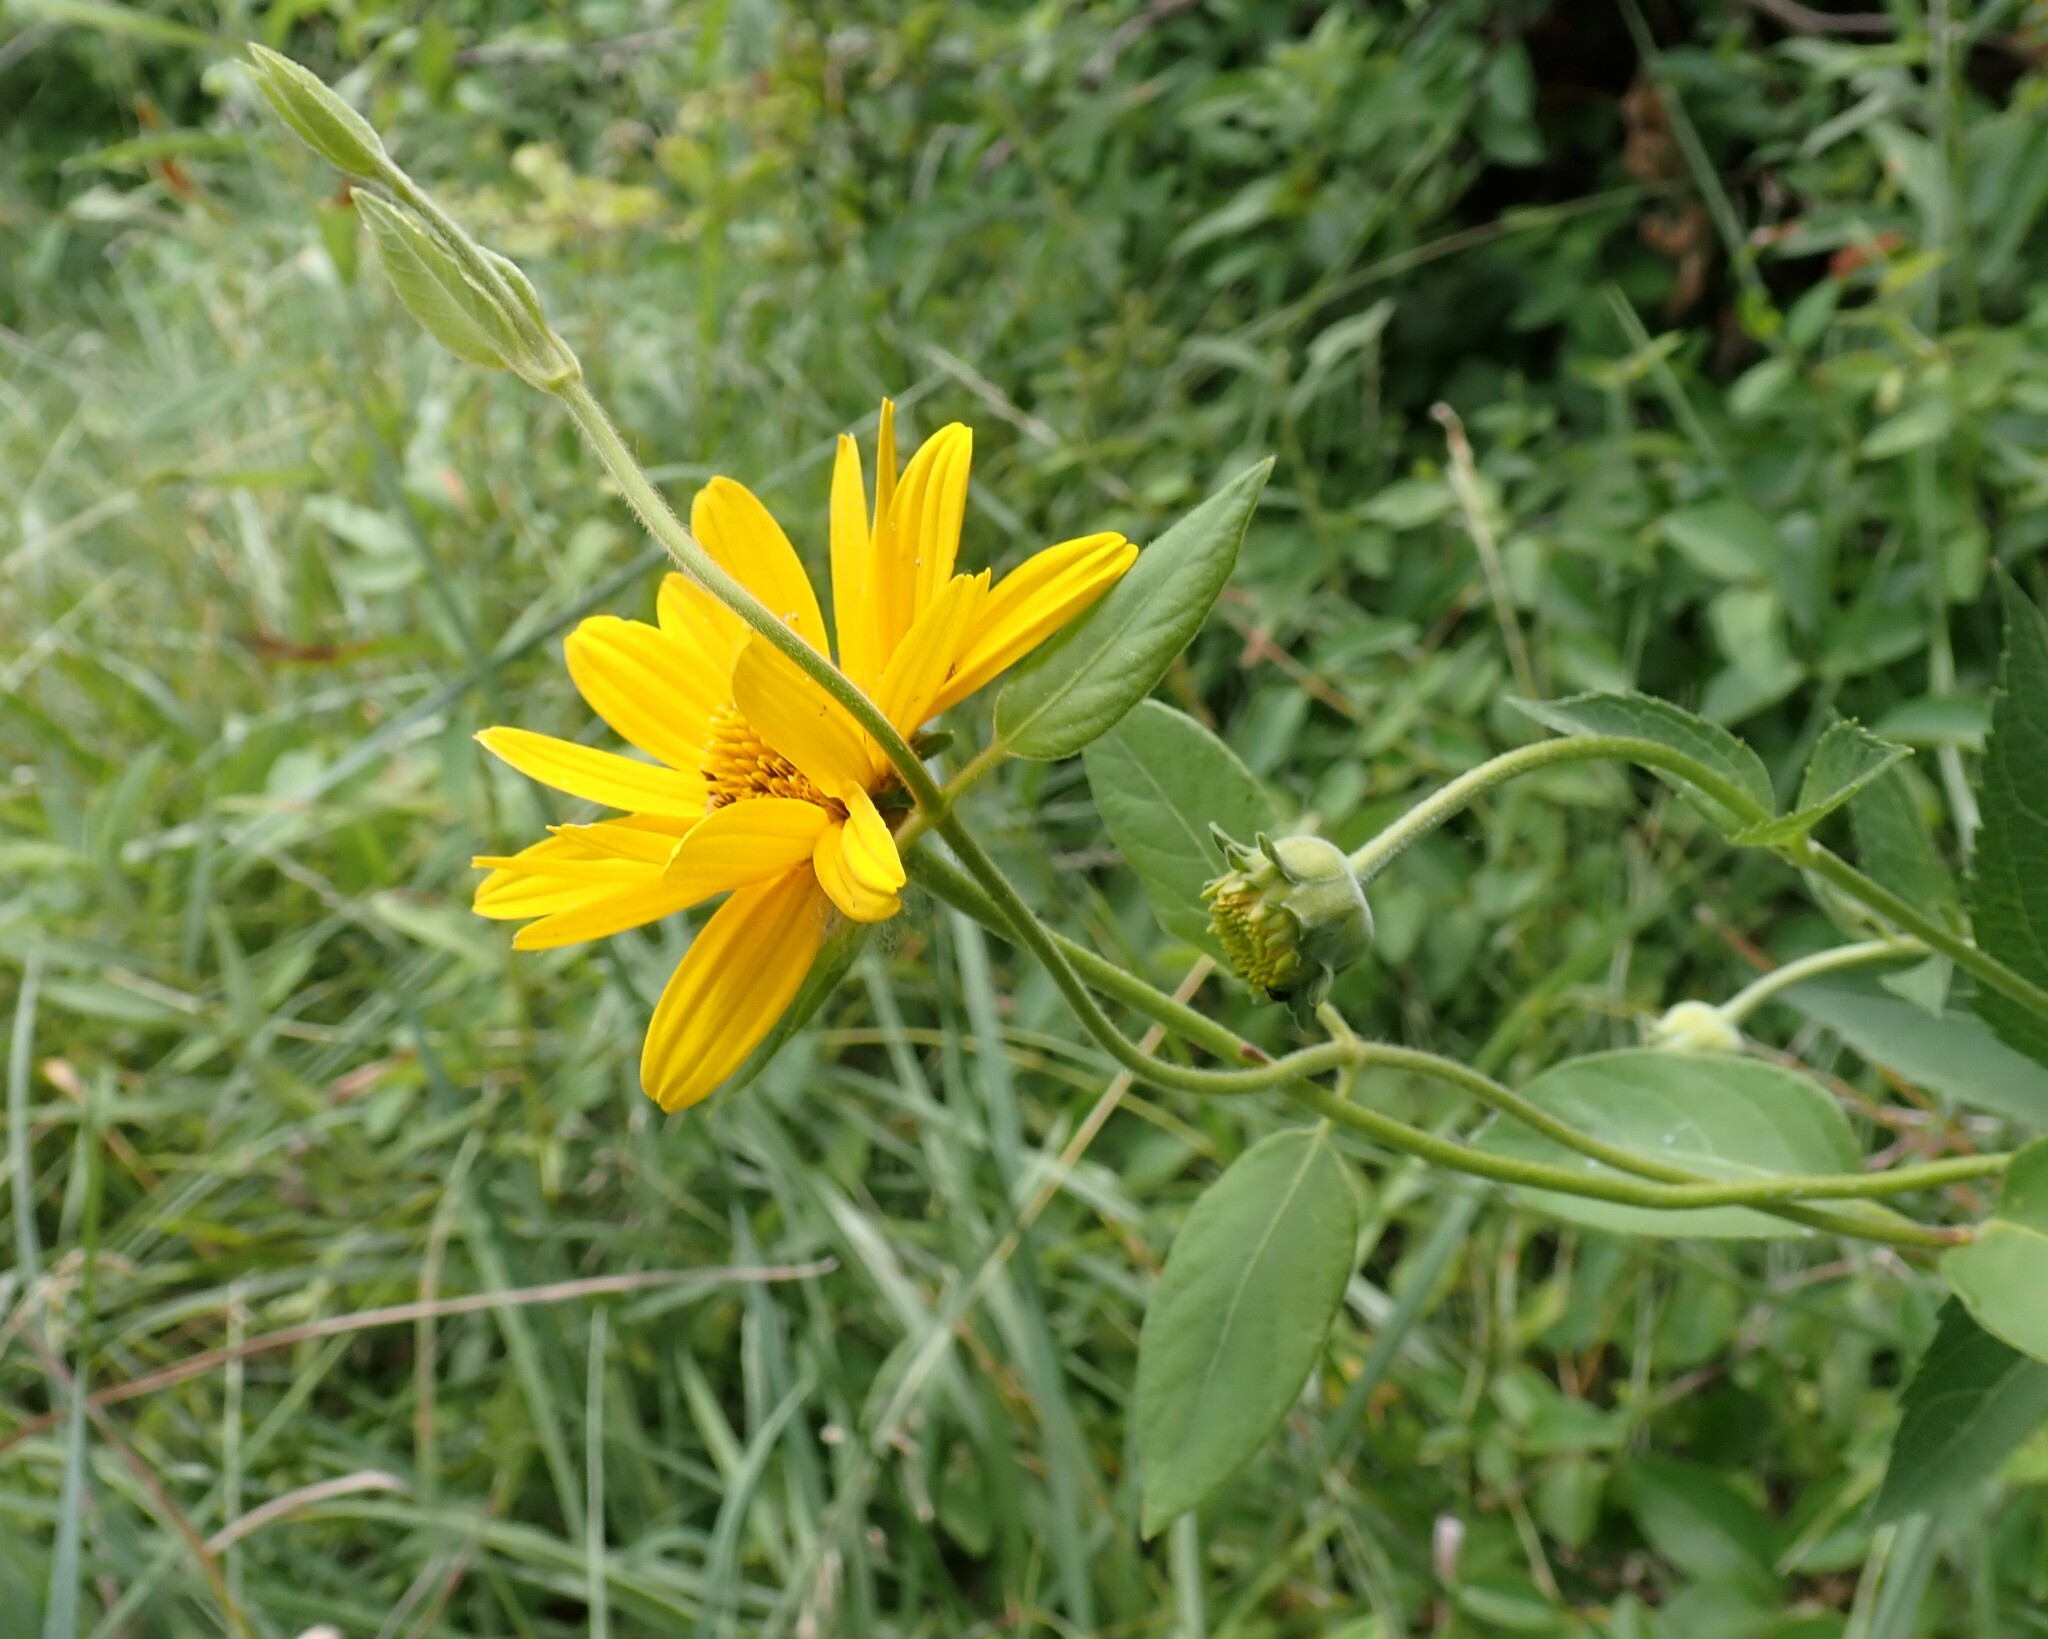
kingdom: Plantae
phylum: Tracheophyta
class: Magnoliopsida
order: Asterales
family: Asteraceae
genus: Heliopsis
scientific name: Heliopsis helianthoides
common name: False sunflower
